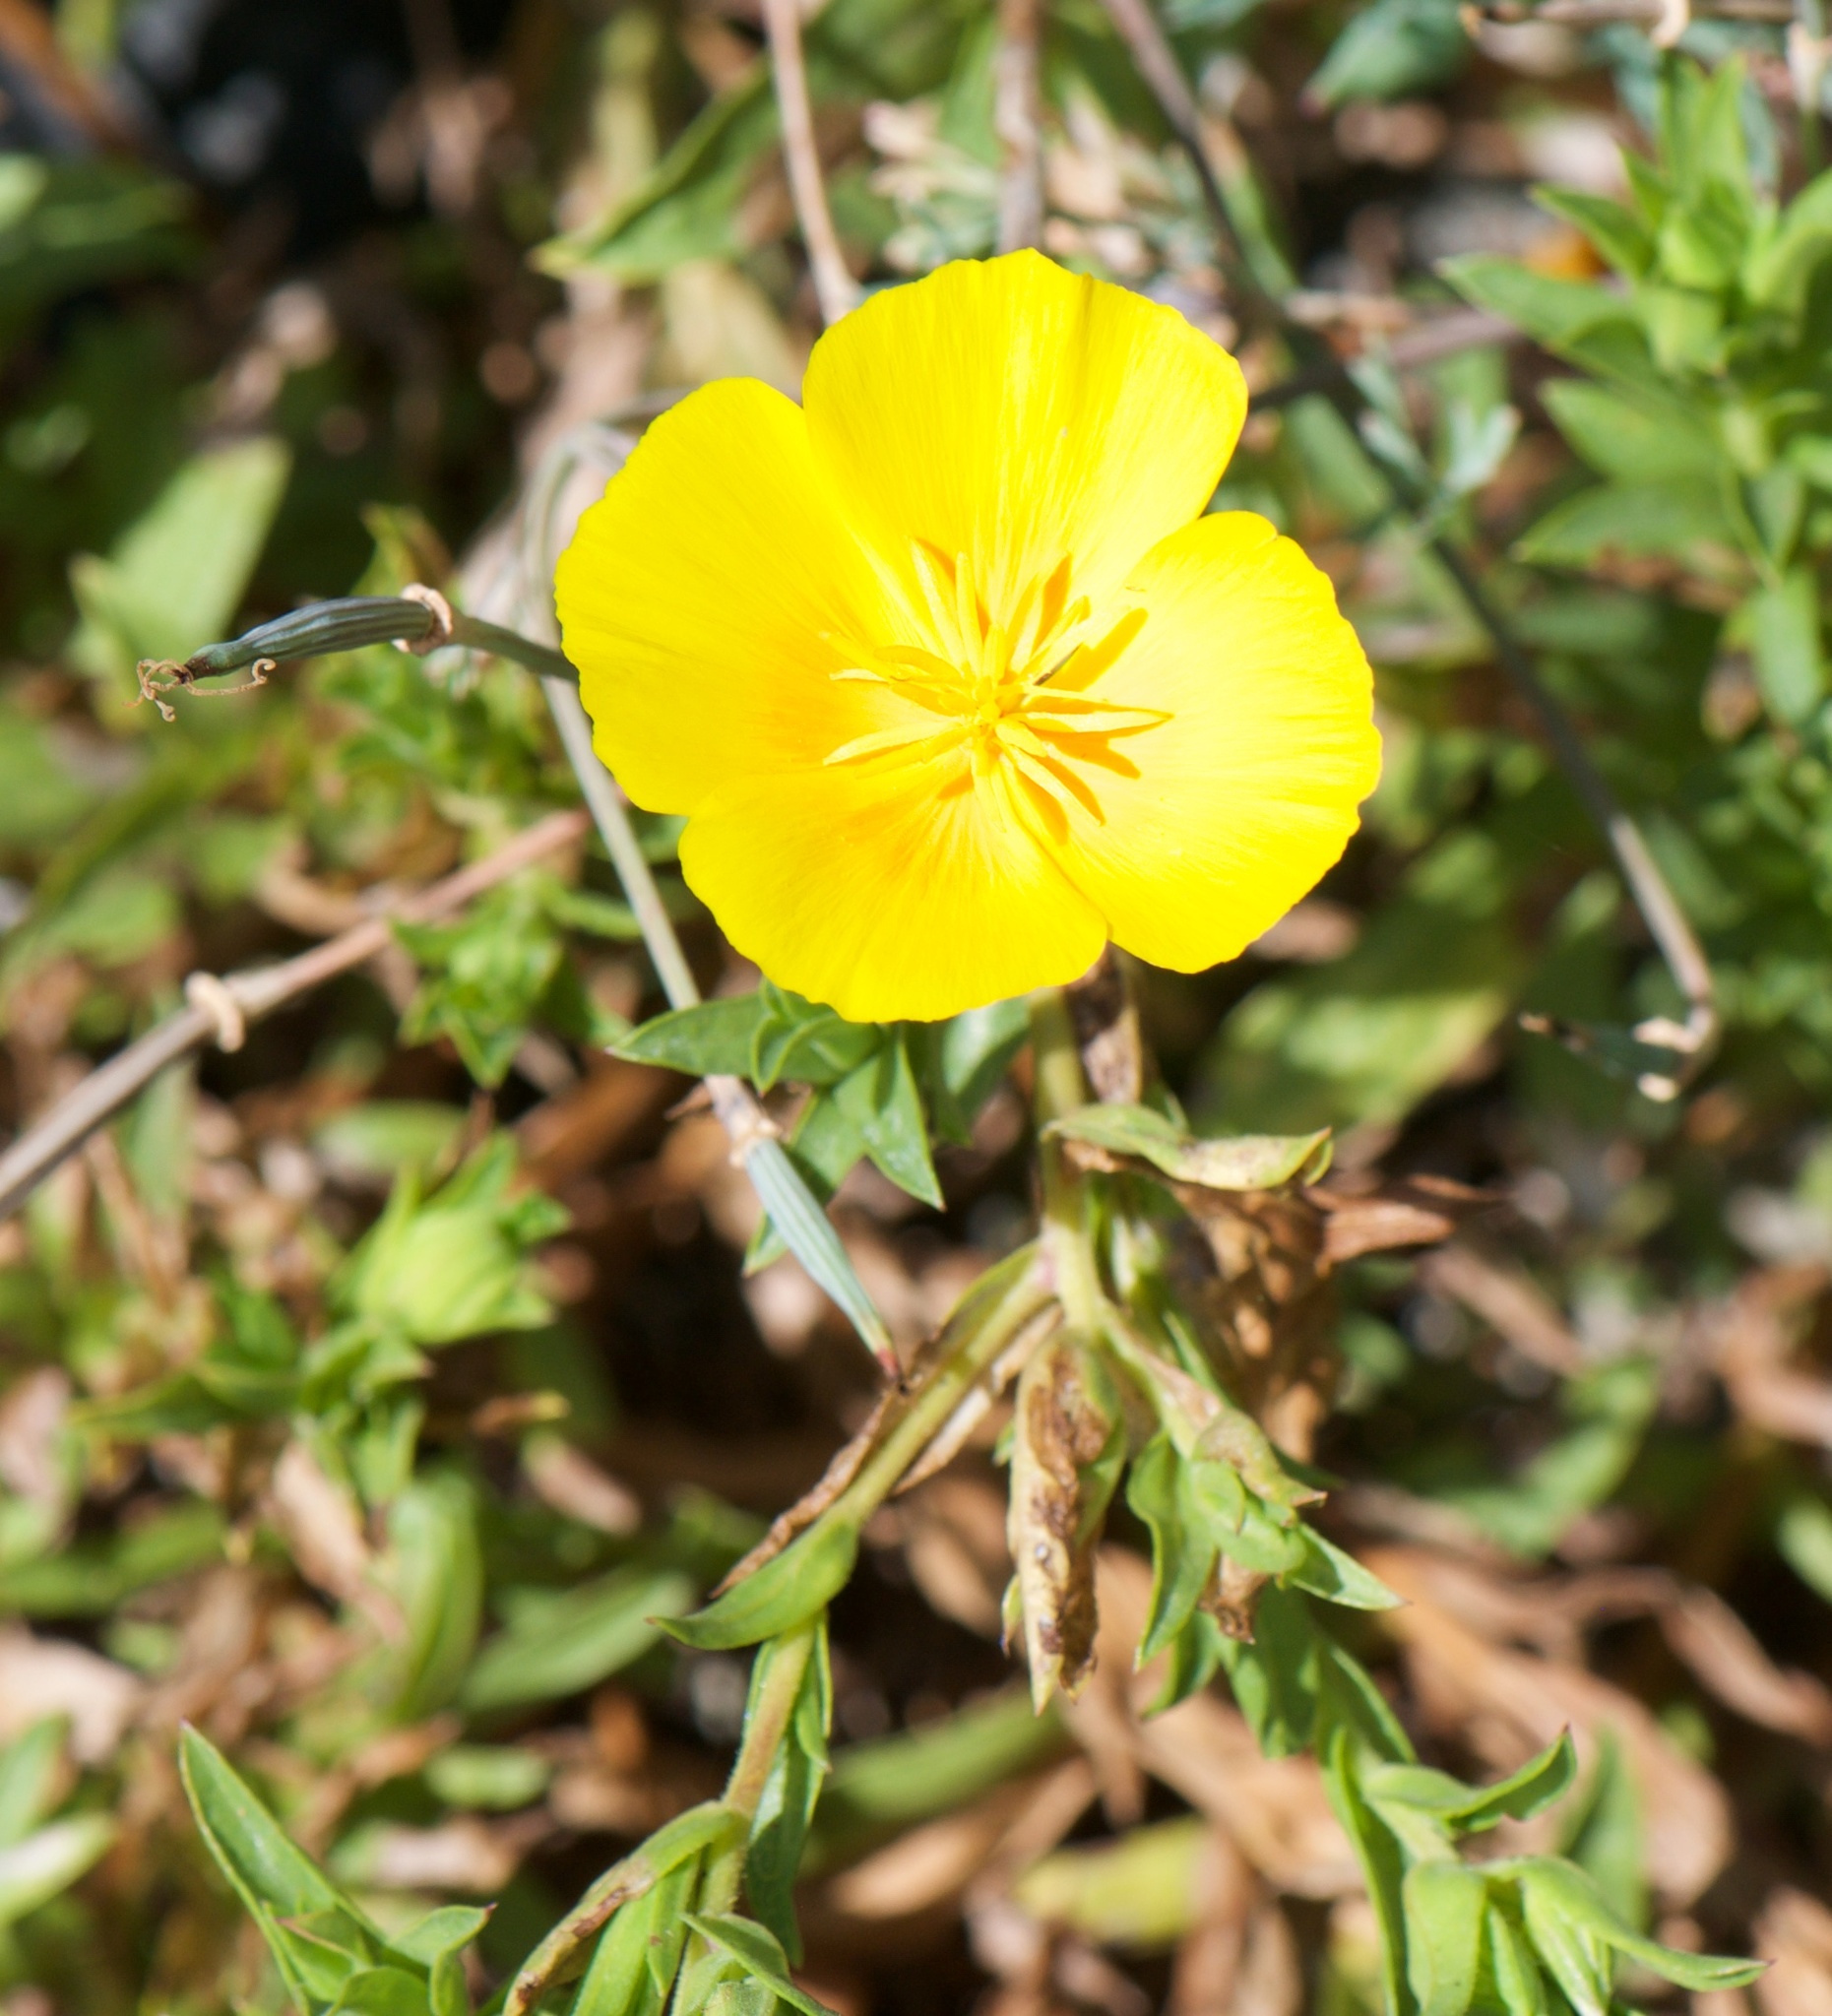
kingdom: Plantae
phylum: Tracheophyta
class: Magnoliopsida
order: Ranunculales
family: Papaveraceae
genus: Eschscholzia
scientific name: Eschscholzia californica
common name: California poppy
